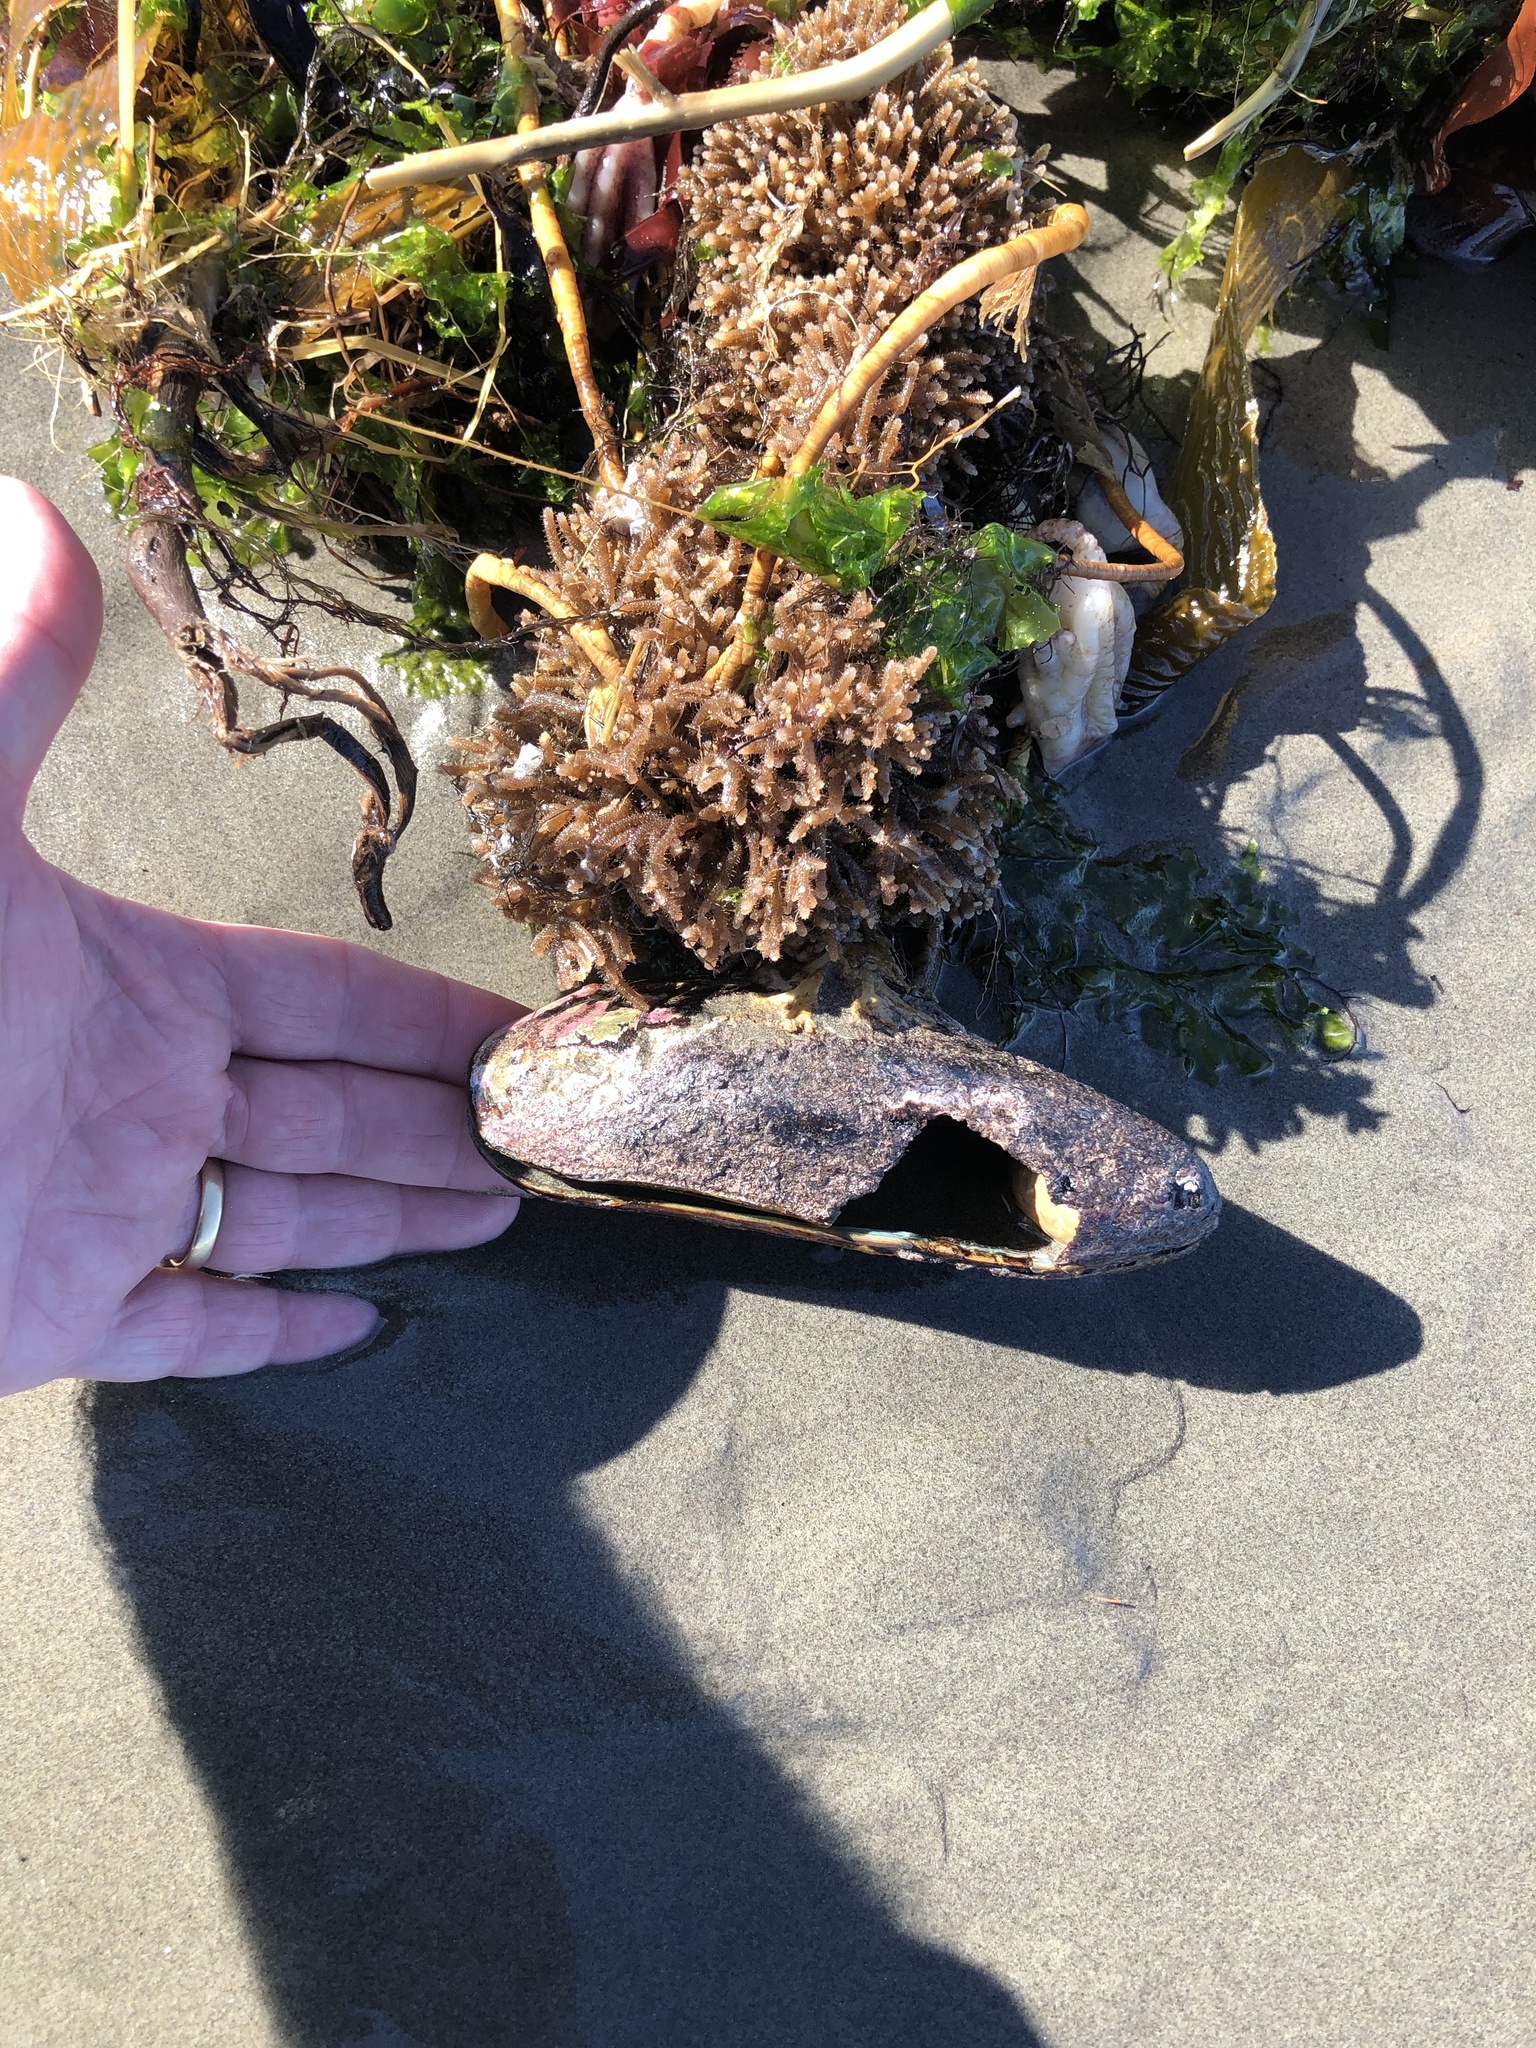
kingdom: Animalia
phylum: Mollusca
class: Bivalvia
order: Mytilida
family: Mytilidae
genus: Perna
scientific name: Perna canaliculus
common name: New zealand greenshelltm
